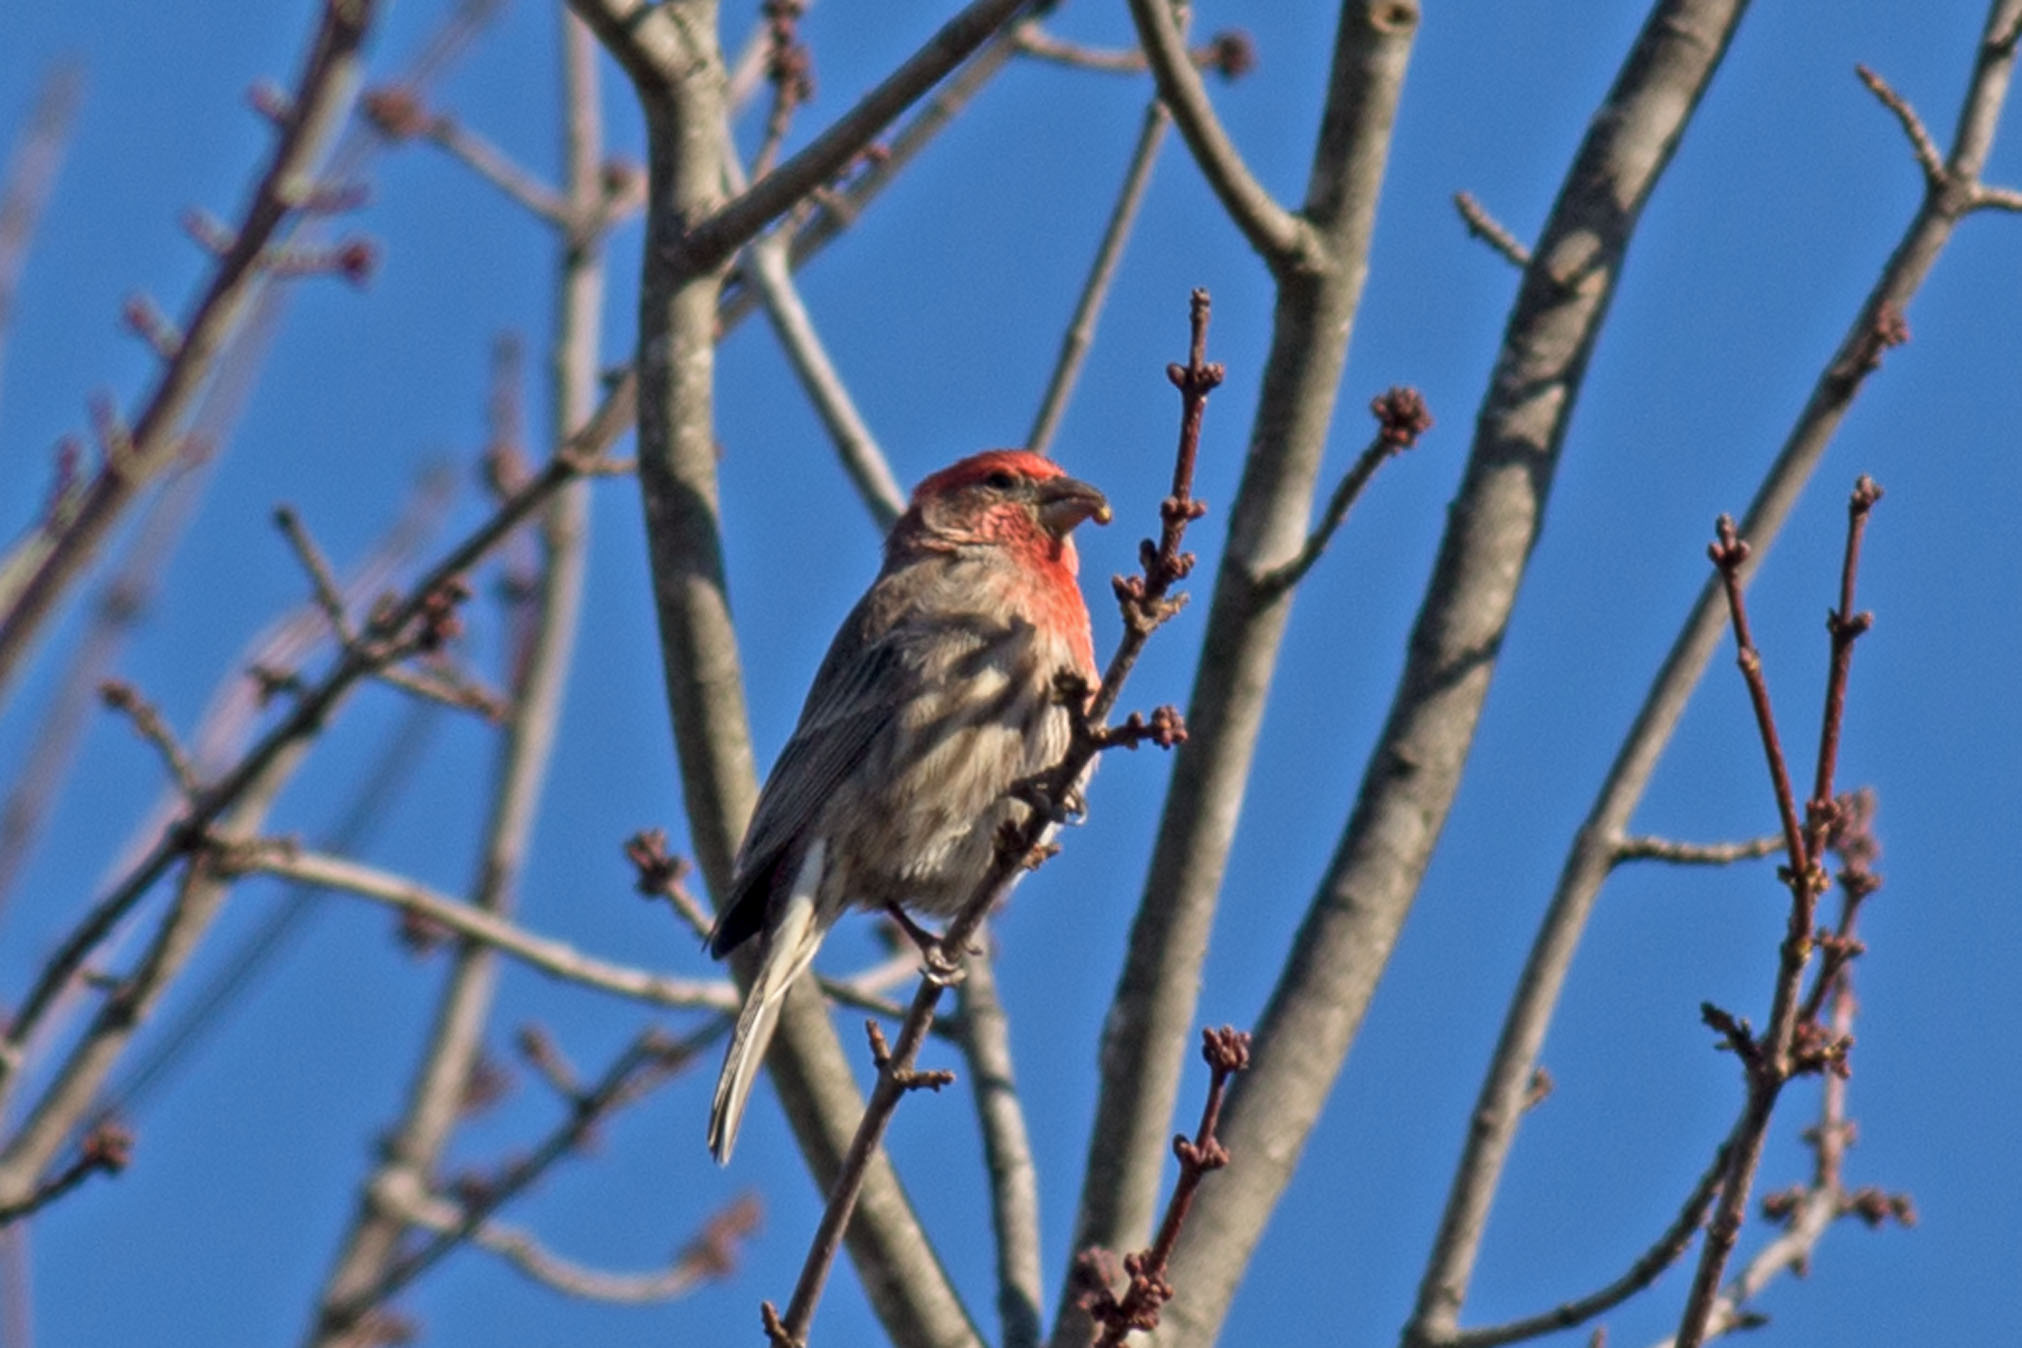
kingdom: Animalia
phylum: Chordata
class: Aves
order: Passeriformes
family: Fringillidae
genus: Haemorhous
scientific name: Haemorhous mexicanus
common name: House finch
